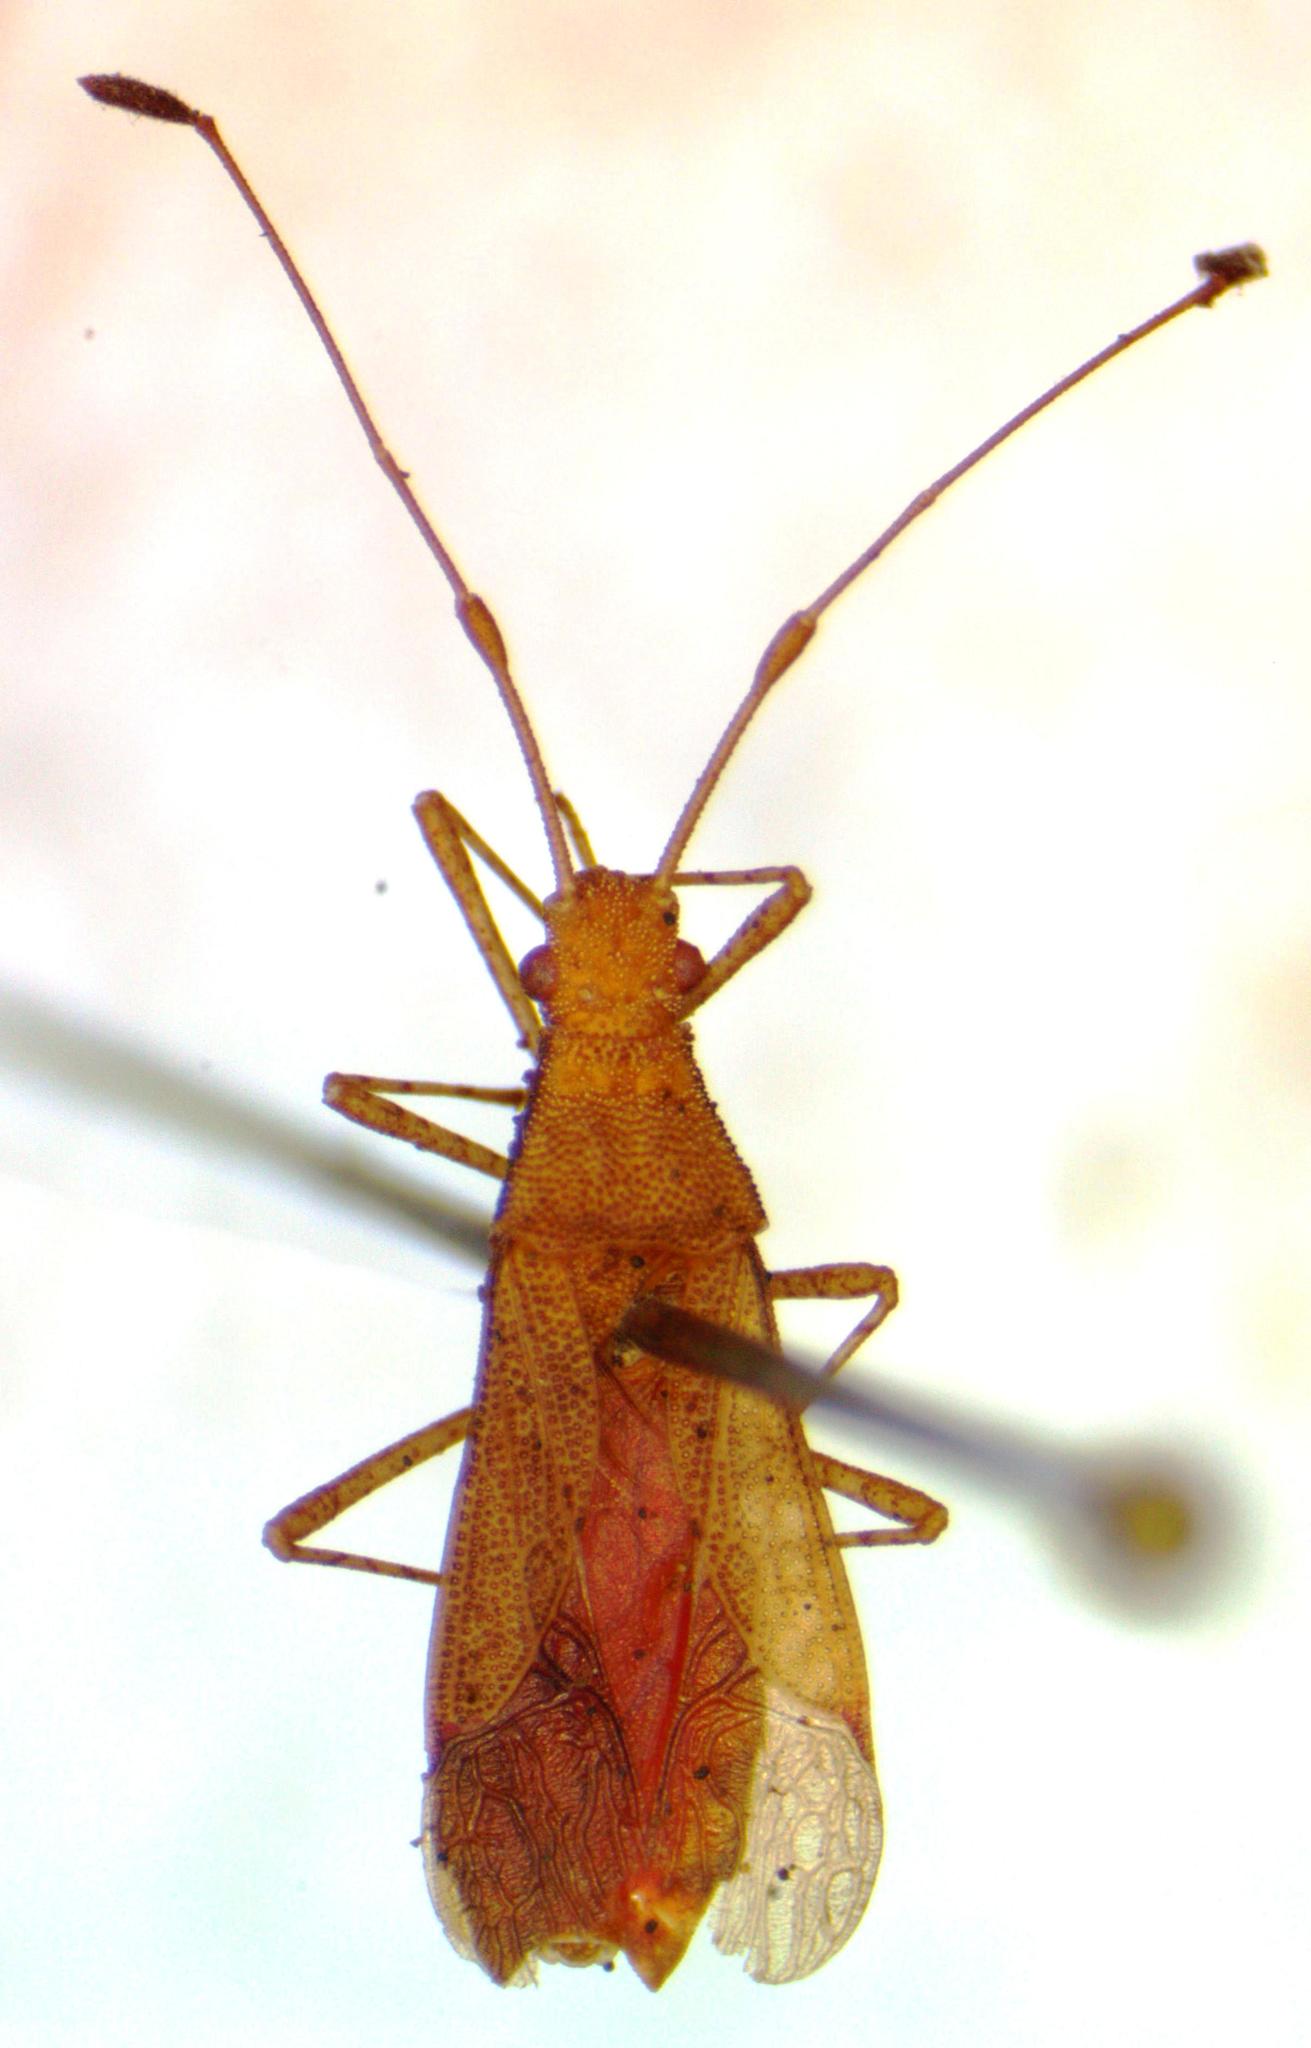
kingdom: Animalia
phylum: Arthropoda
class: Insecta
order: Hemiptera
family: Coreidae
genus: Madura
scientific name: Madura perfida
